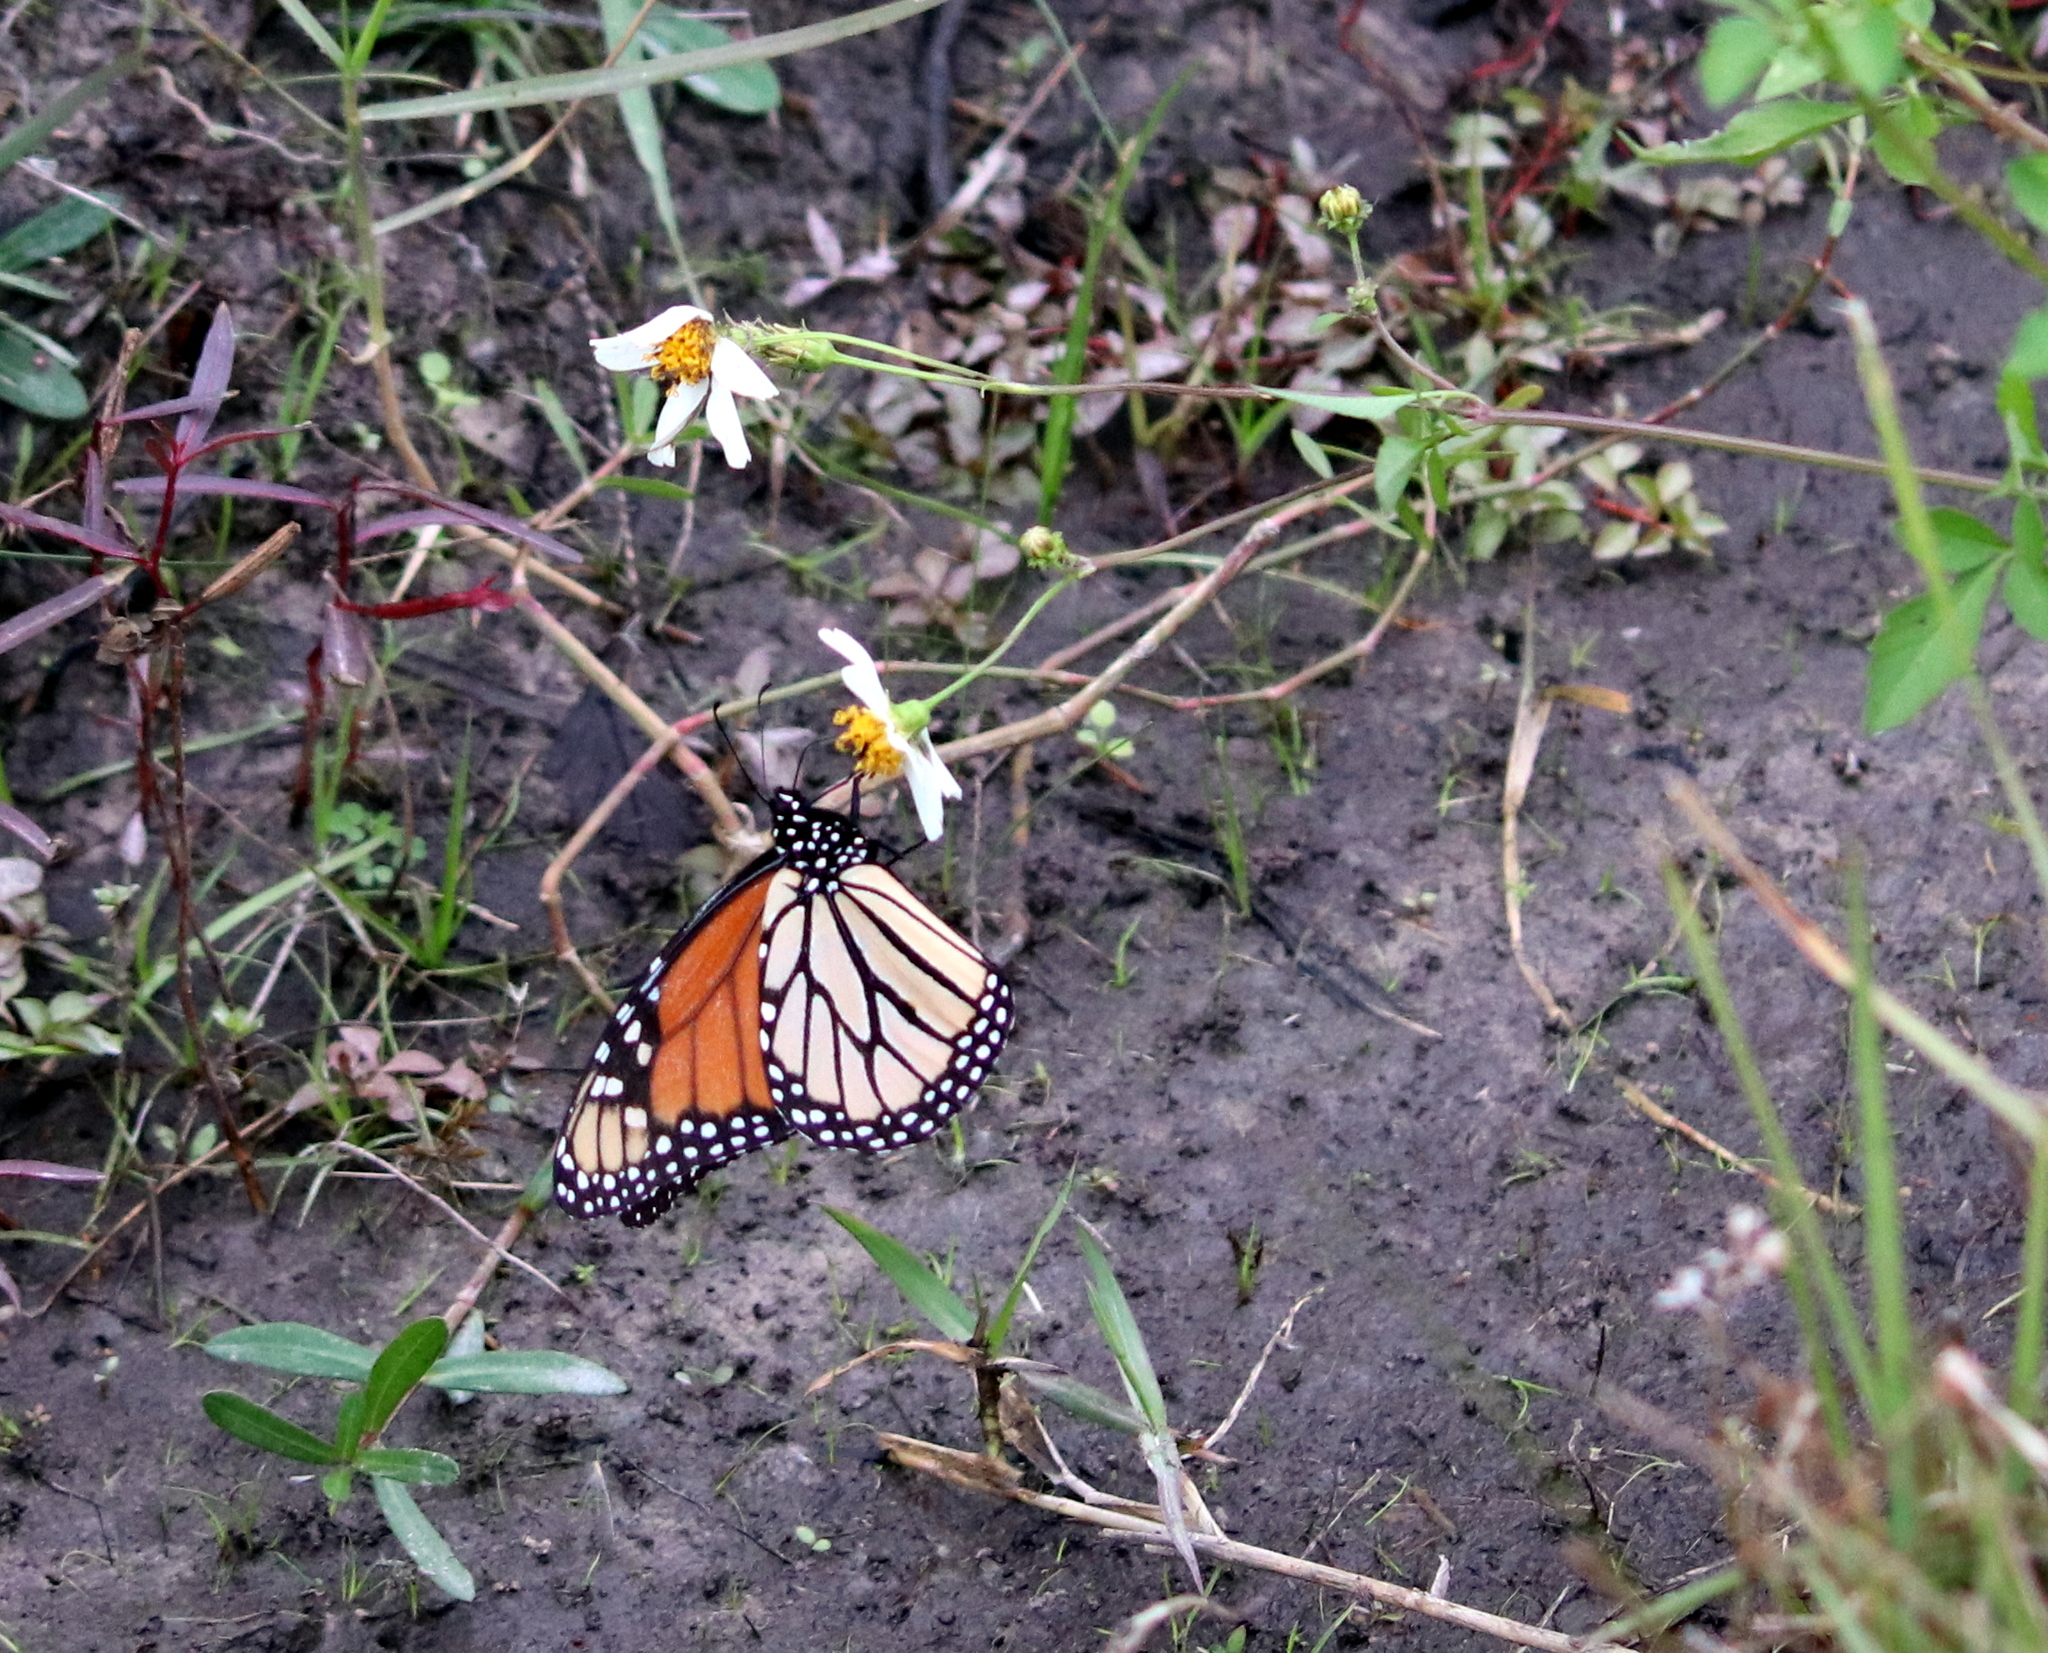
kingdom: Animalia
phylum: Arthropoda
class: Insecta
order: Lepidoptera
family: Nymphalidae
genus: Danaus
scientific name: Danaus plexippus
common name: Monarch
